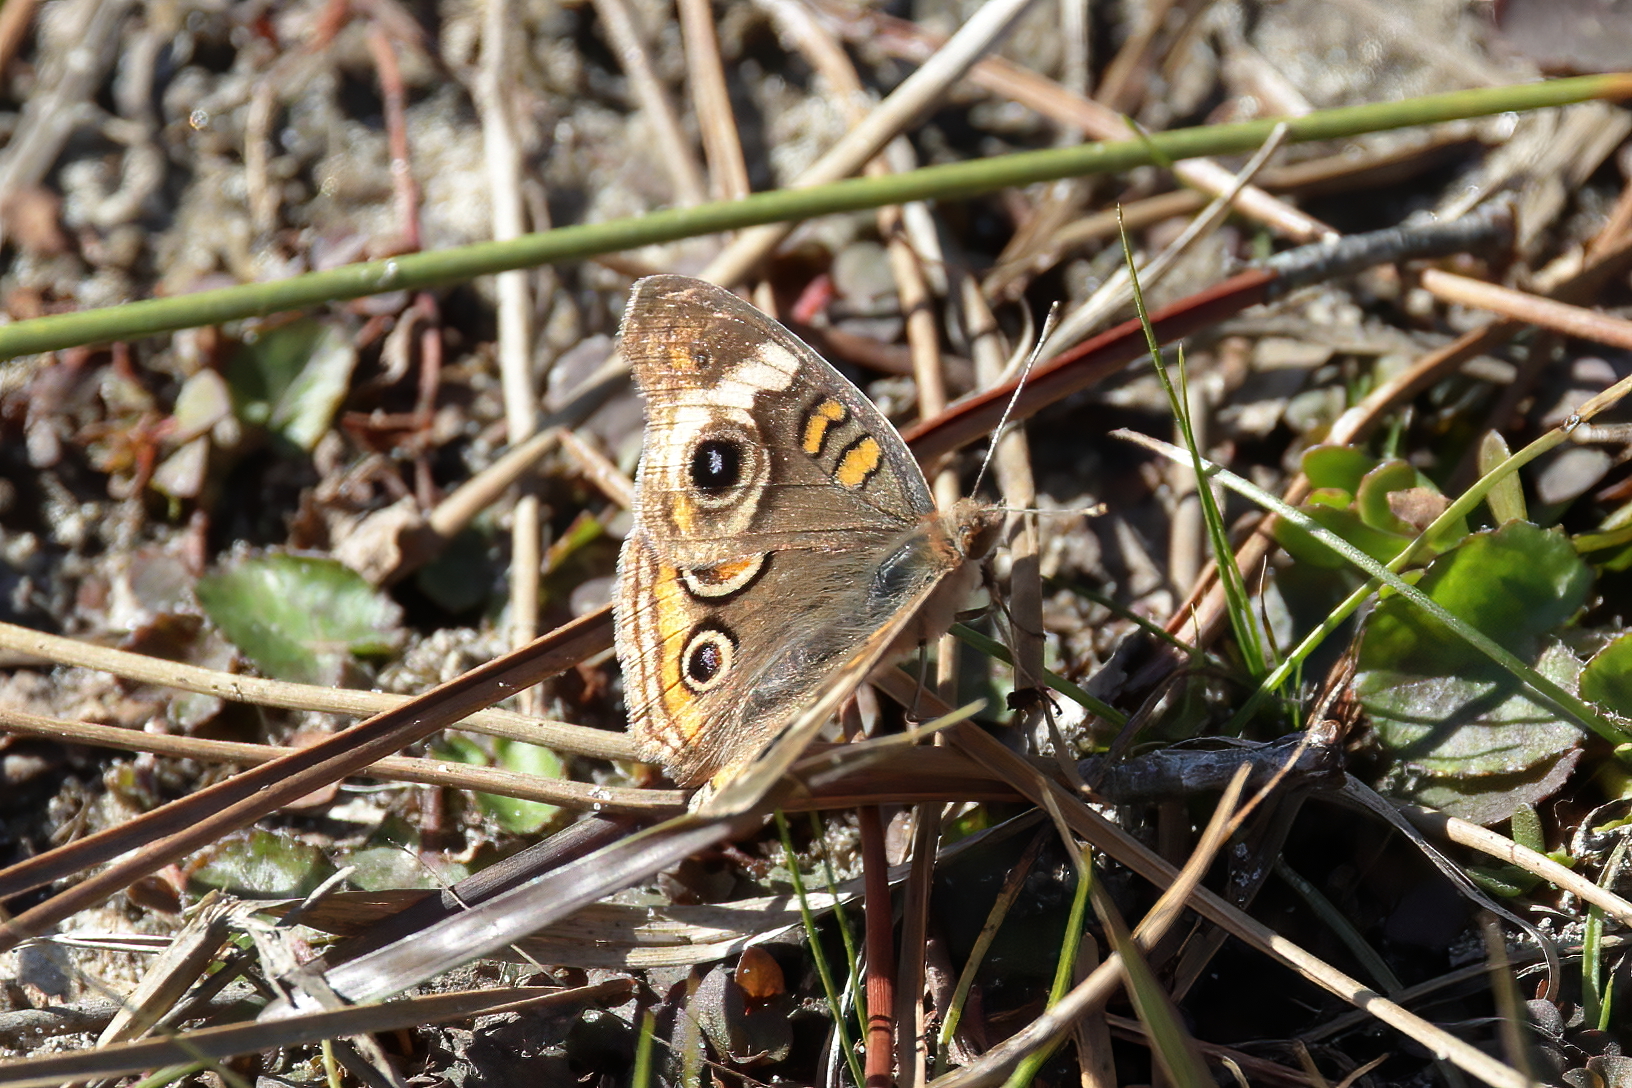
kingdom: Animalia
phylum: Arthropoda
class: Insecta
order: Lepidoptera
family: Nymphalidae
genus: Junonia
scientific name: Junonia coenia
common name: Common buckeye
